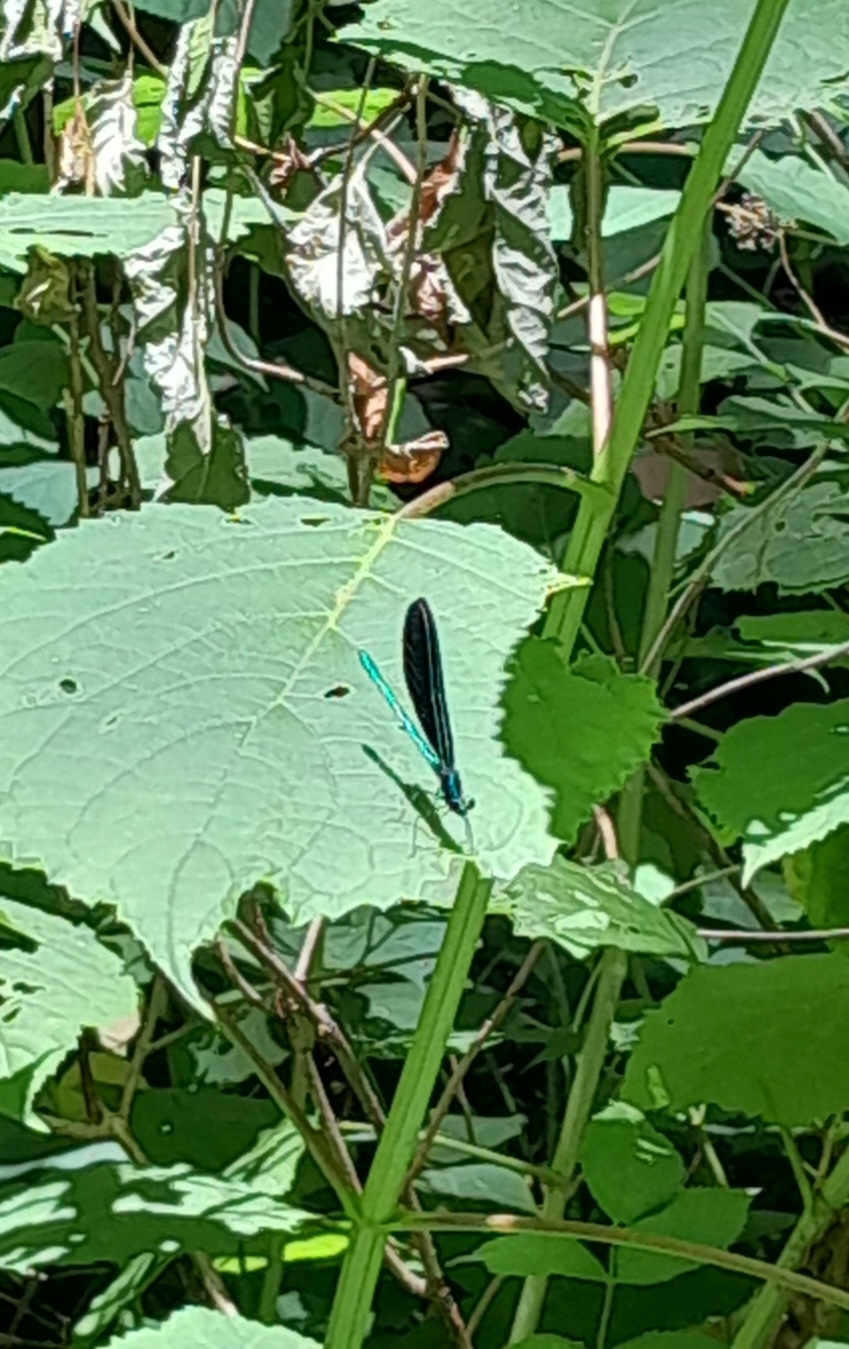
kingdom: Animalia
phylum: Arthropoda
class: Insecta
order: Odonata
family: Calopterygidae
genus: Calopteryx
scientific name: Calopteryx maculata
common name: Ebony jewelwing
